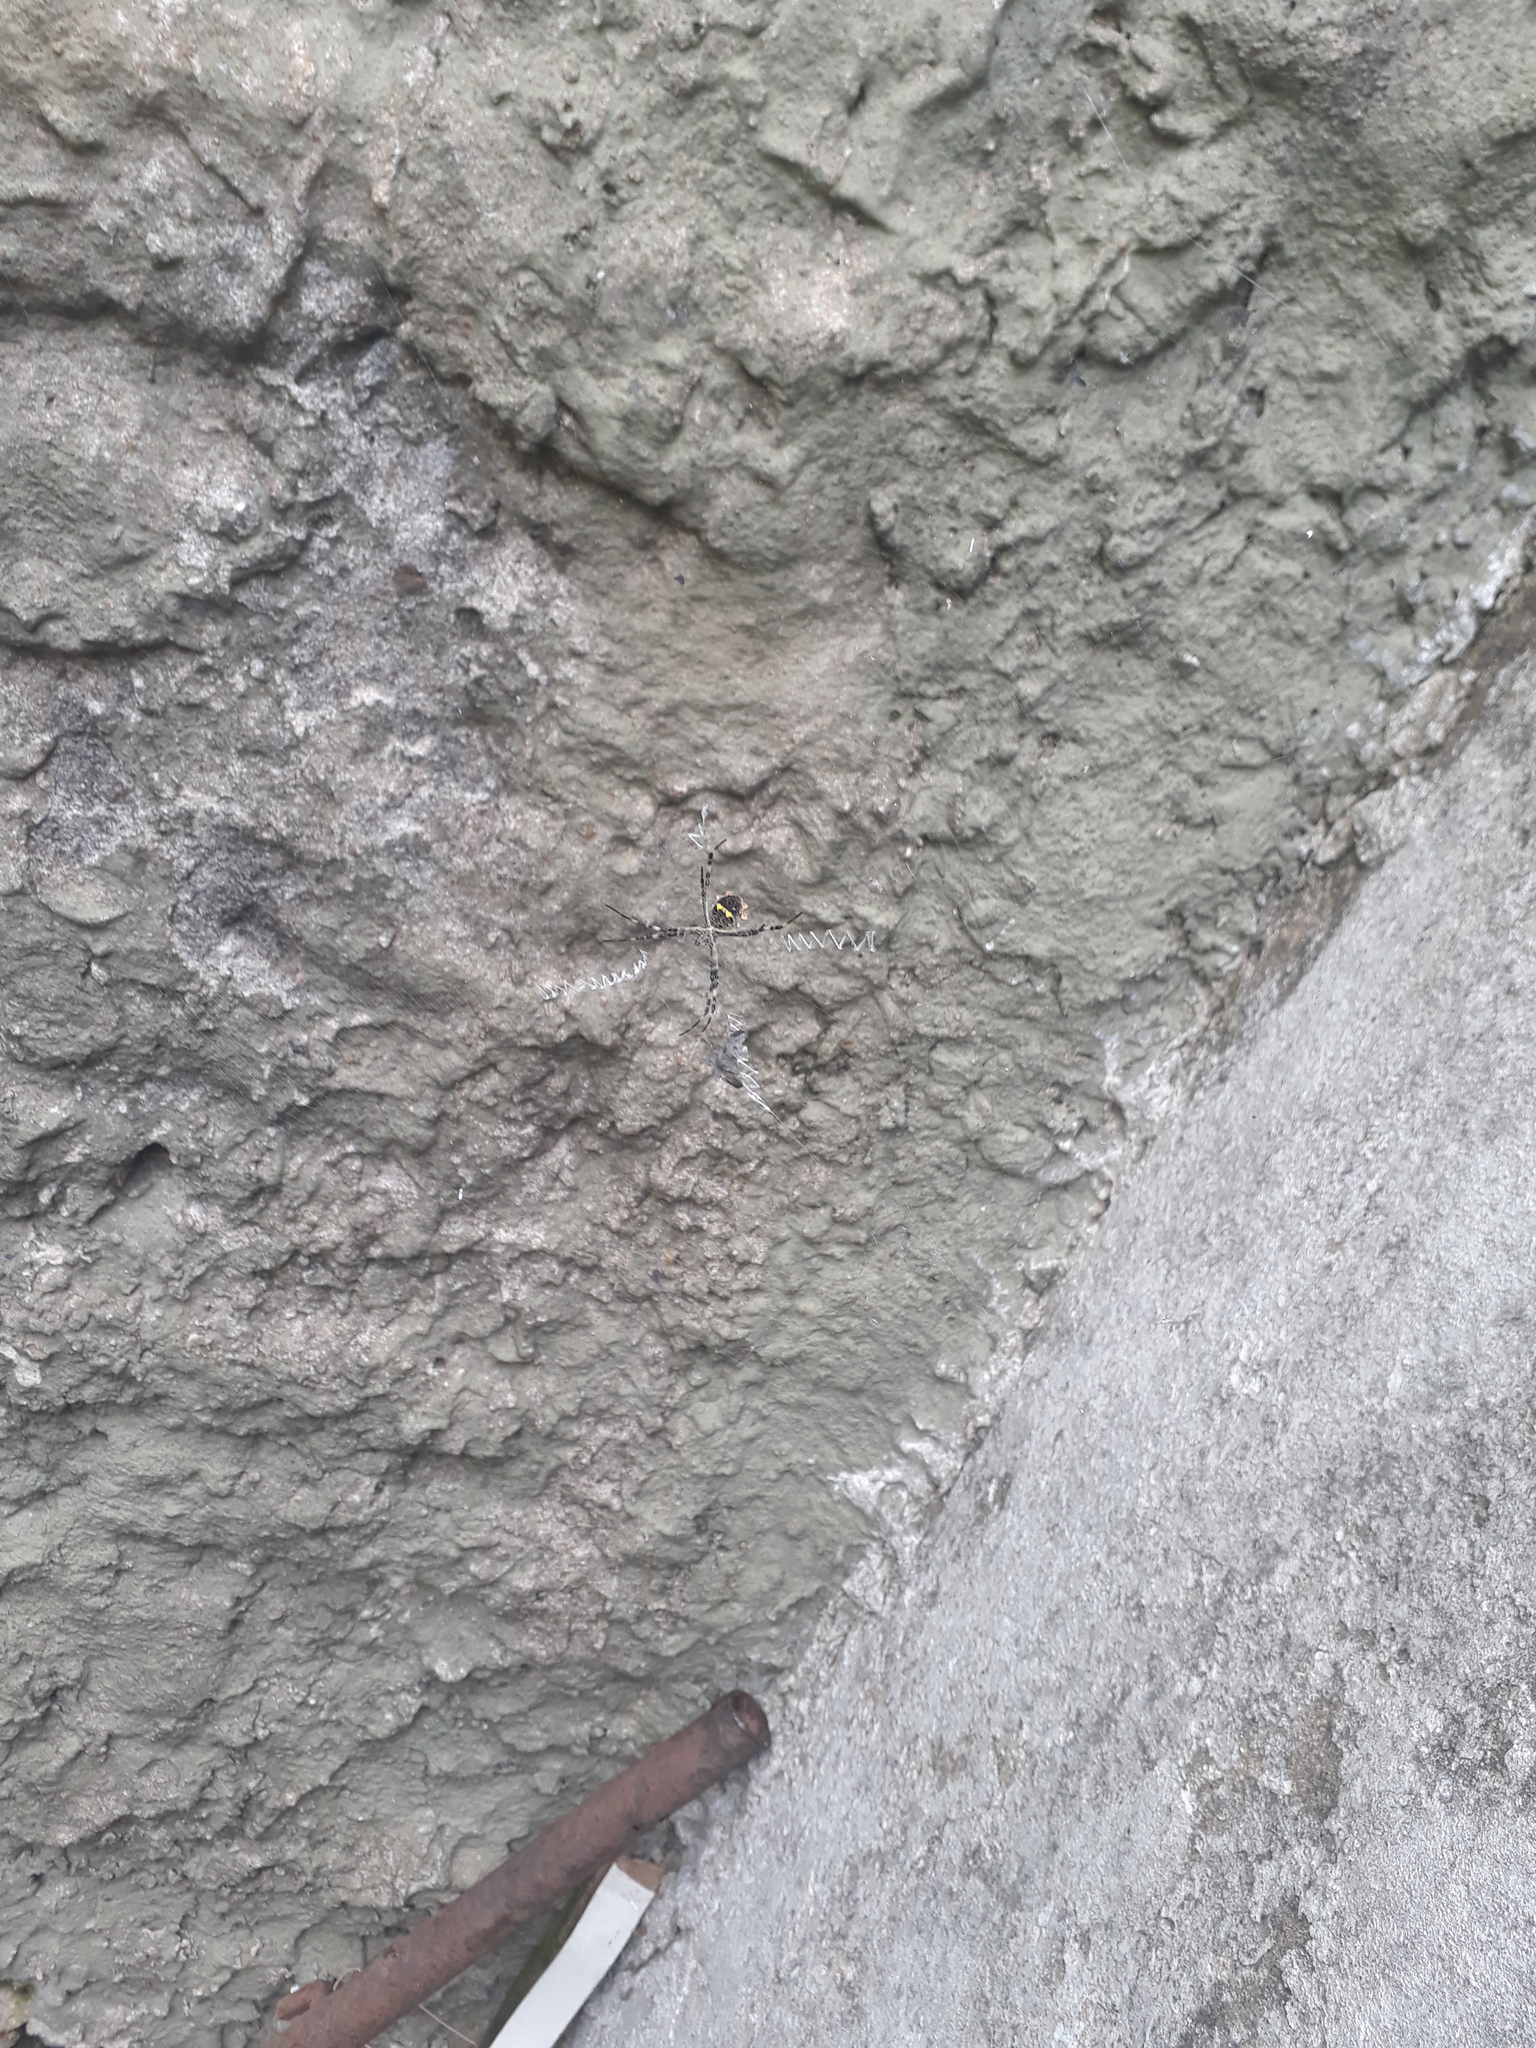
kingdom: Animalia
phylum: Arthropoda
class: Arachnida
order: Araneae
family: Araneidae
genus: Argiope
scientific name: Argiope argentata
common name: Orb weavers
